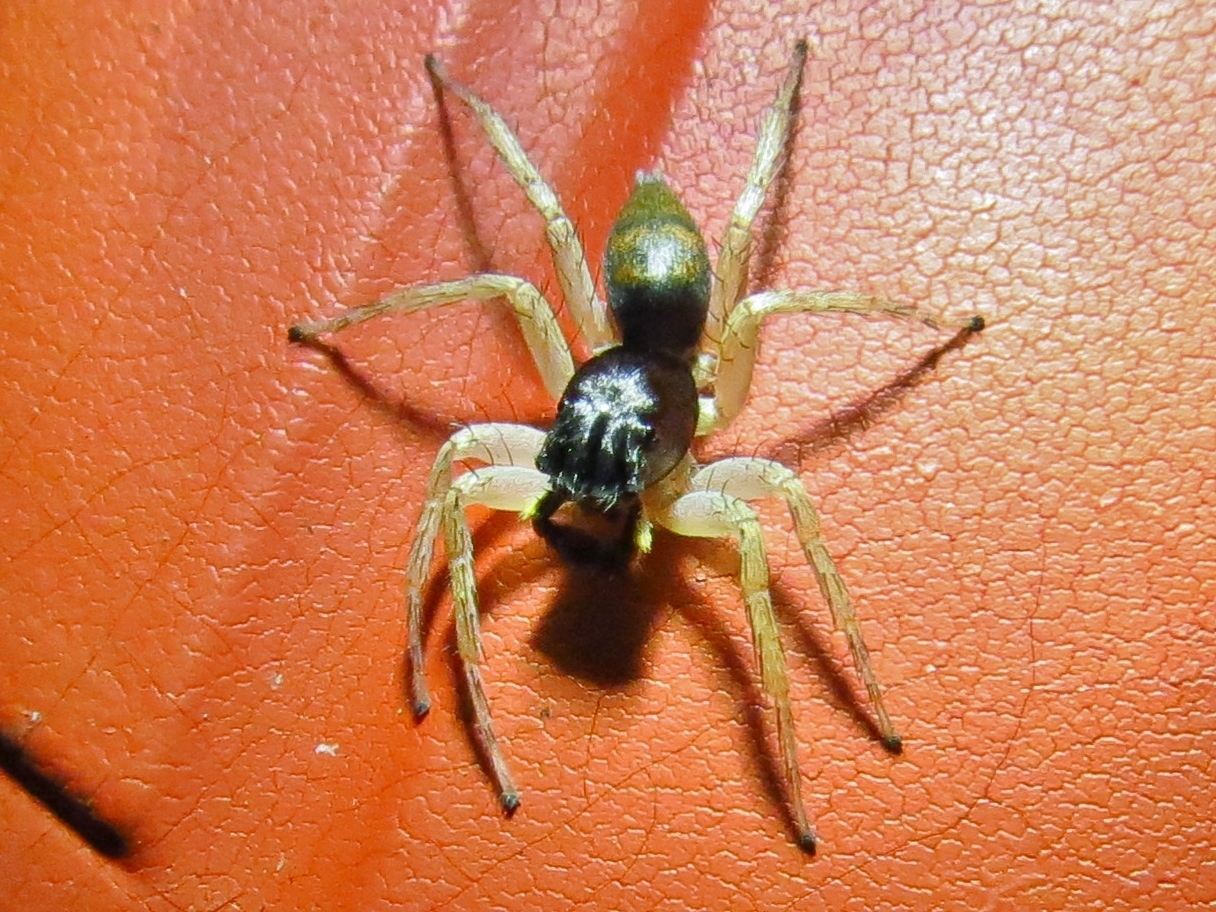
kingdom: Animalia
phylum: Arthropoda
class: Arachnida
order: Araneae
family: Salticidae
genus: Maevia
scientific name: Maevia inclemens
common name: Dimorphic jumper
